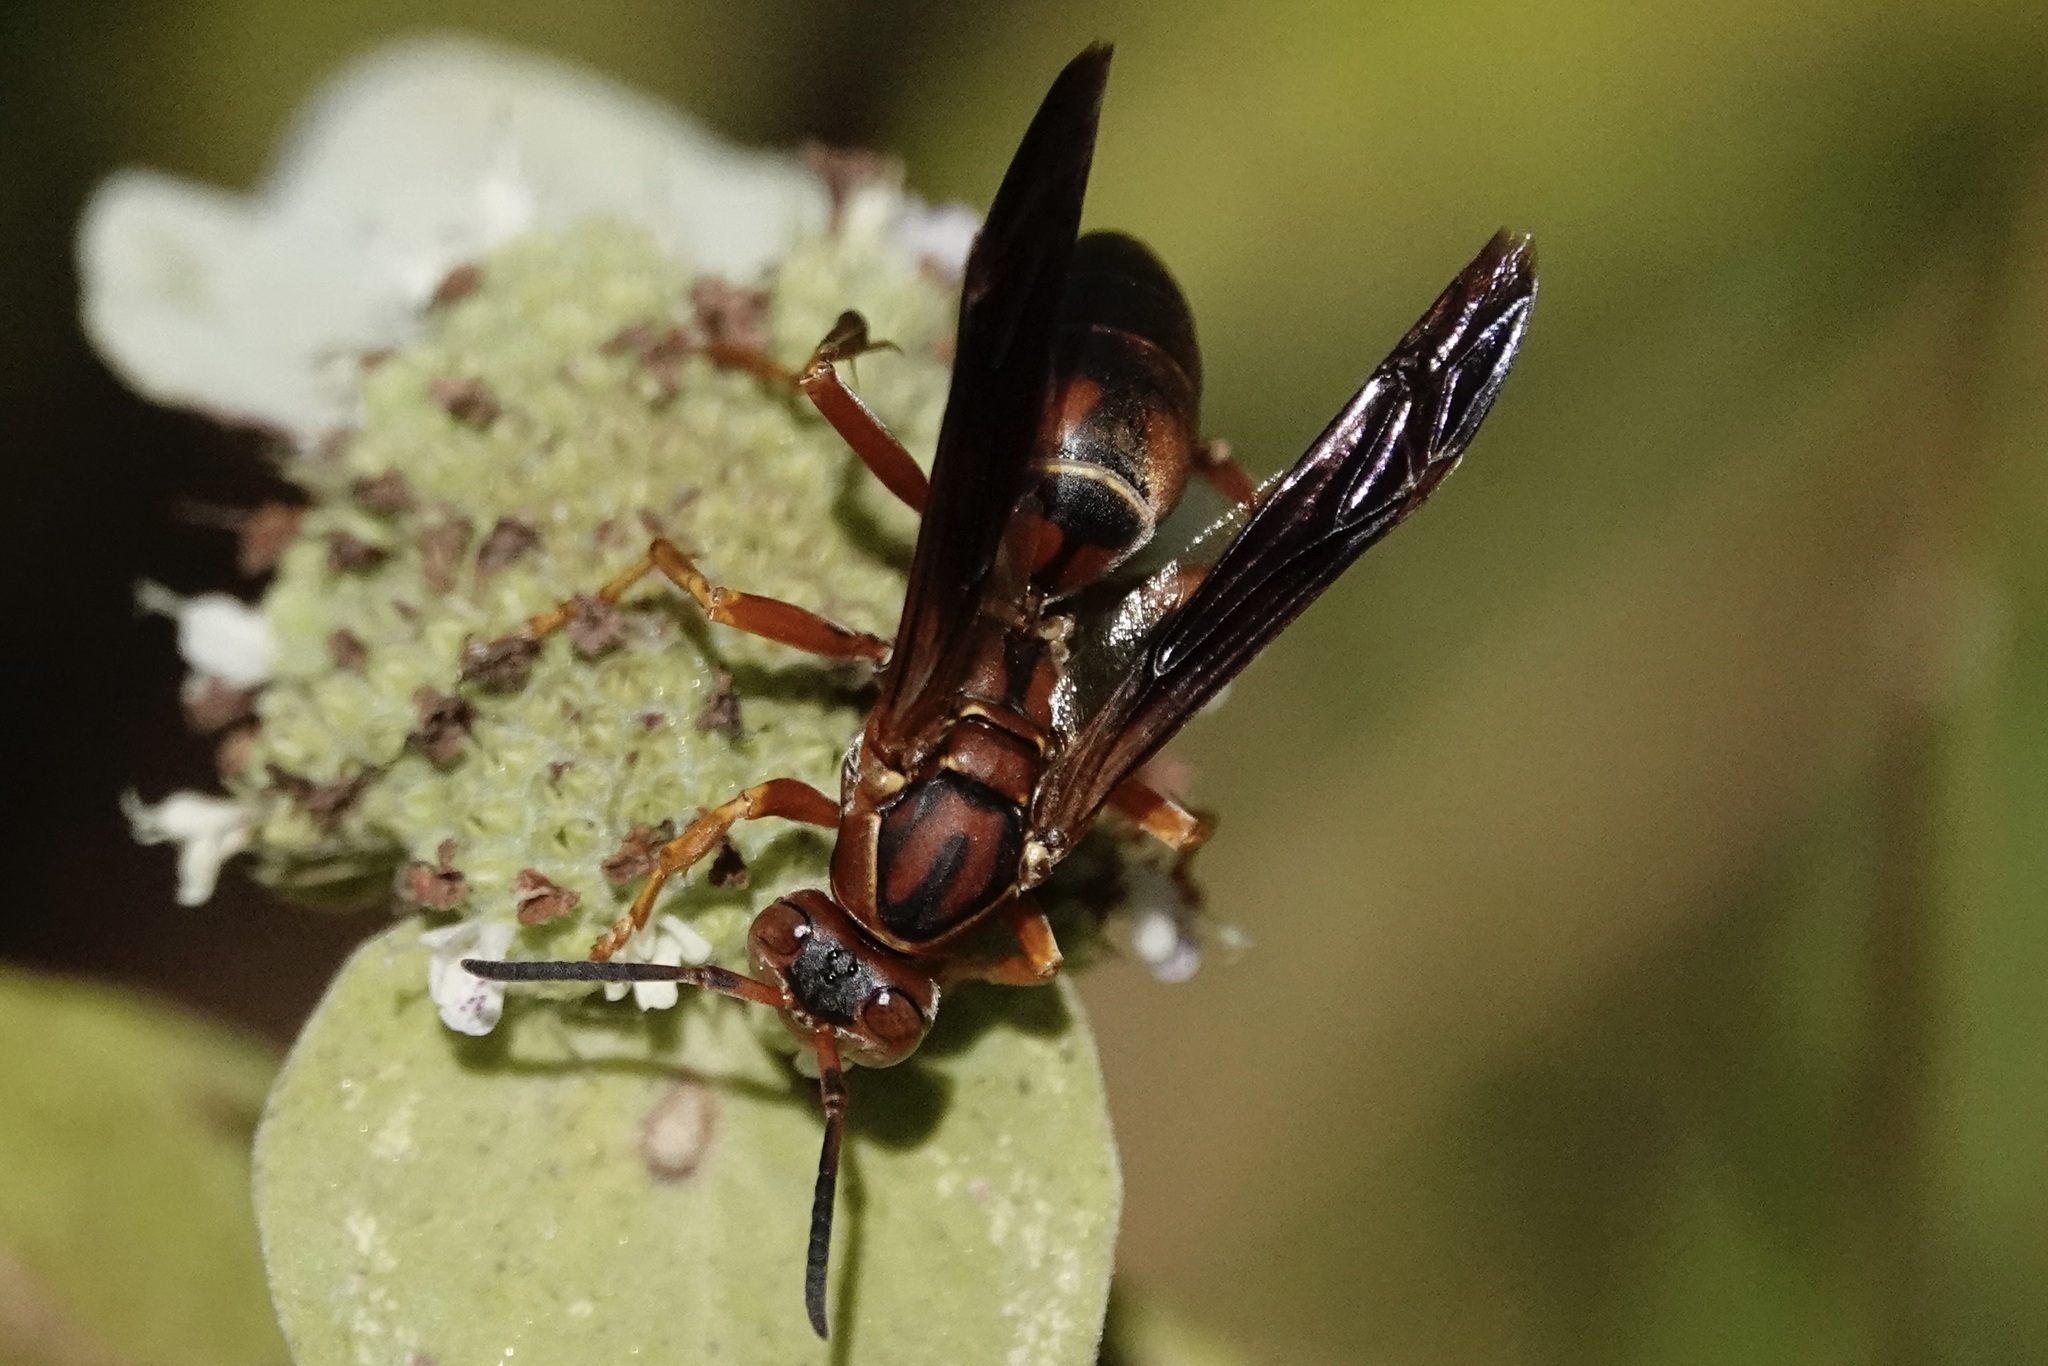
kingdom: Animalia
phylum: Arthropoda
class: Insecta
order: Hymenoptera
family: Eumenidae
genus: Polistes
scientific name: Polistes fuscatus
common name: Dark paper wasp
